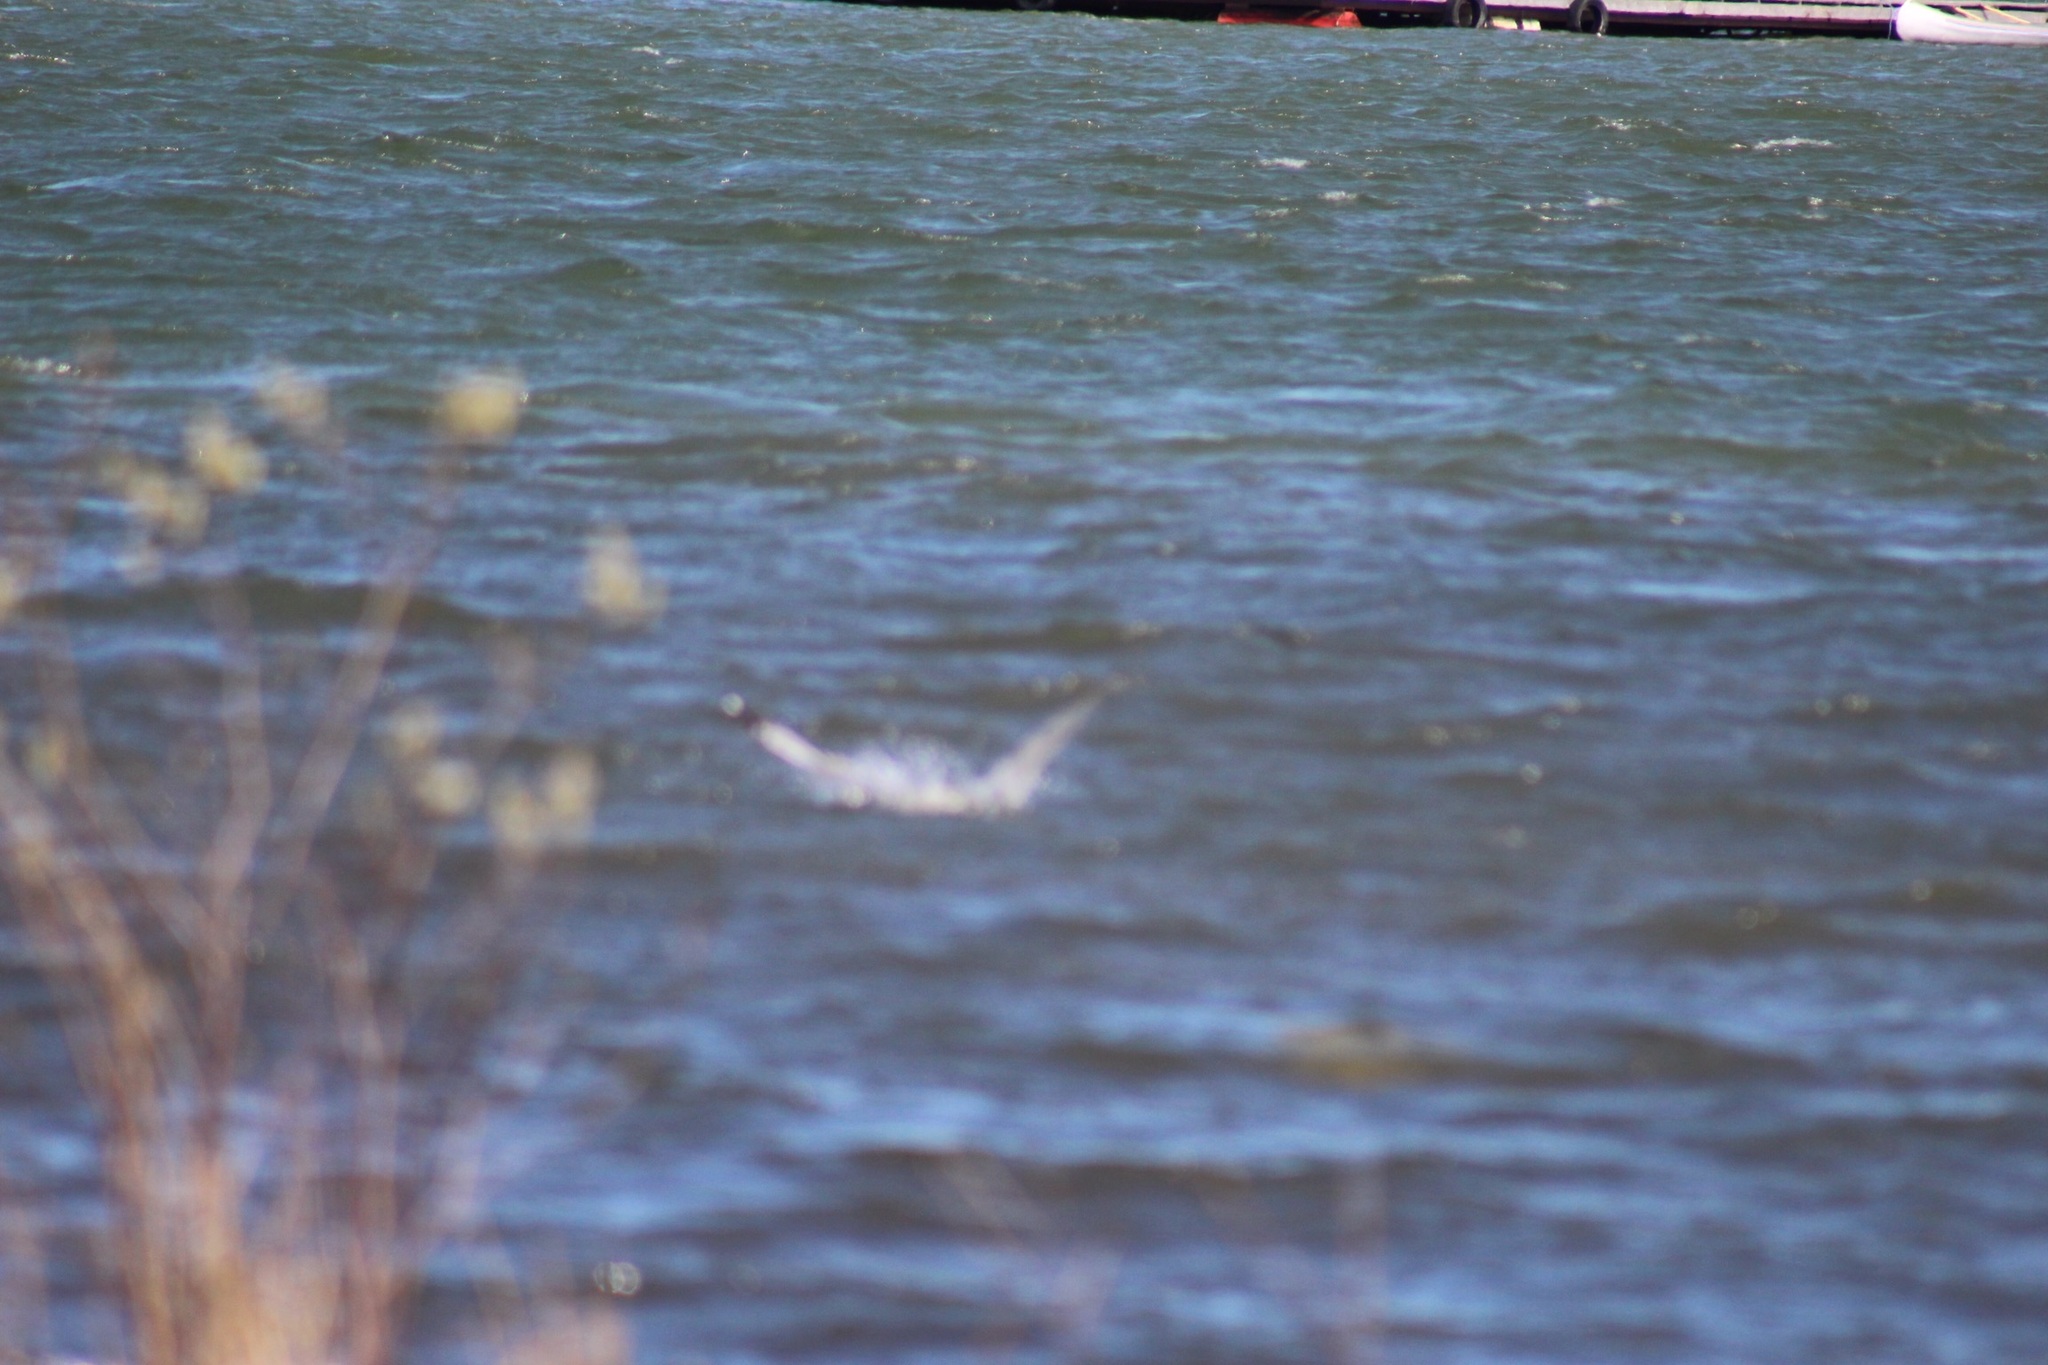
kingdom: Animalia
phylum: Chordata
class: Aves
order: Charadriiformes
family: Laridae
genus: Larus
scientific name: Larus delawarensis
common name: Ring-billed gull
